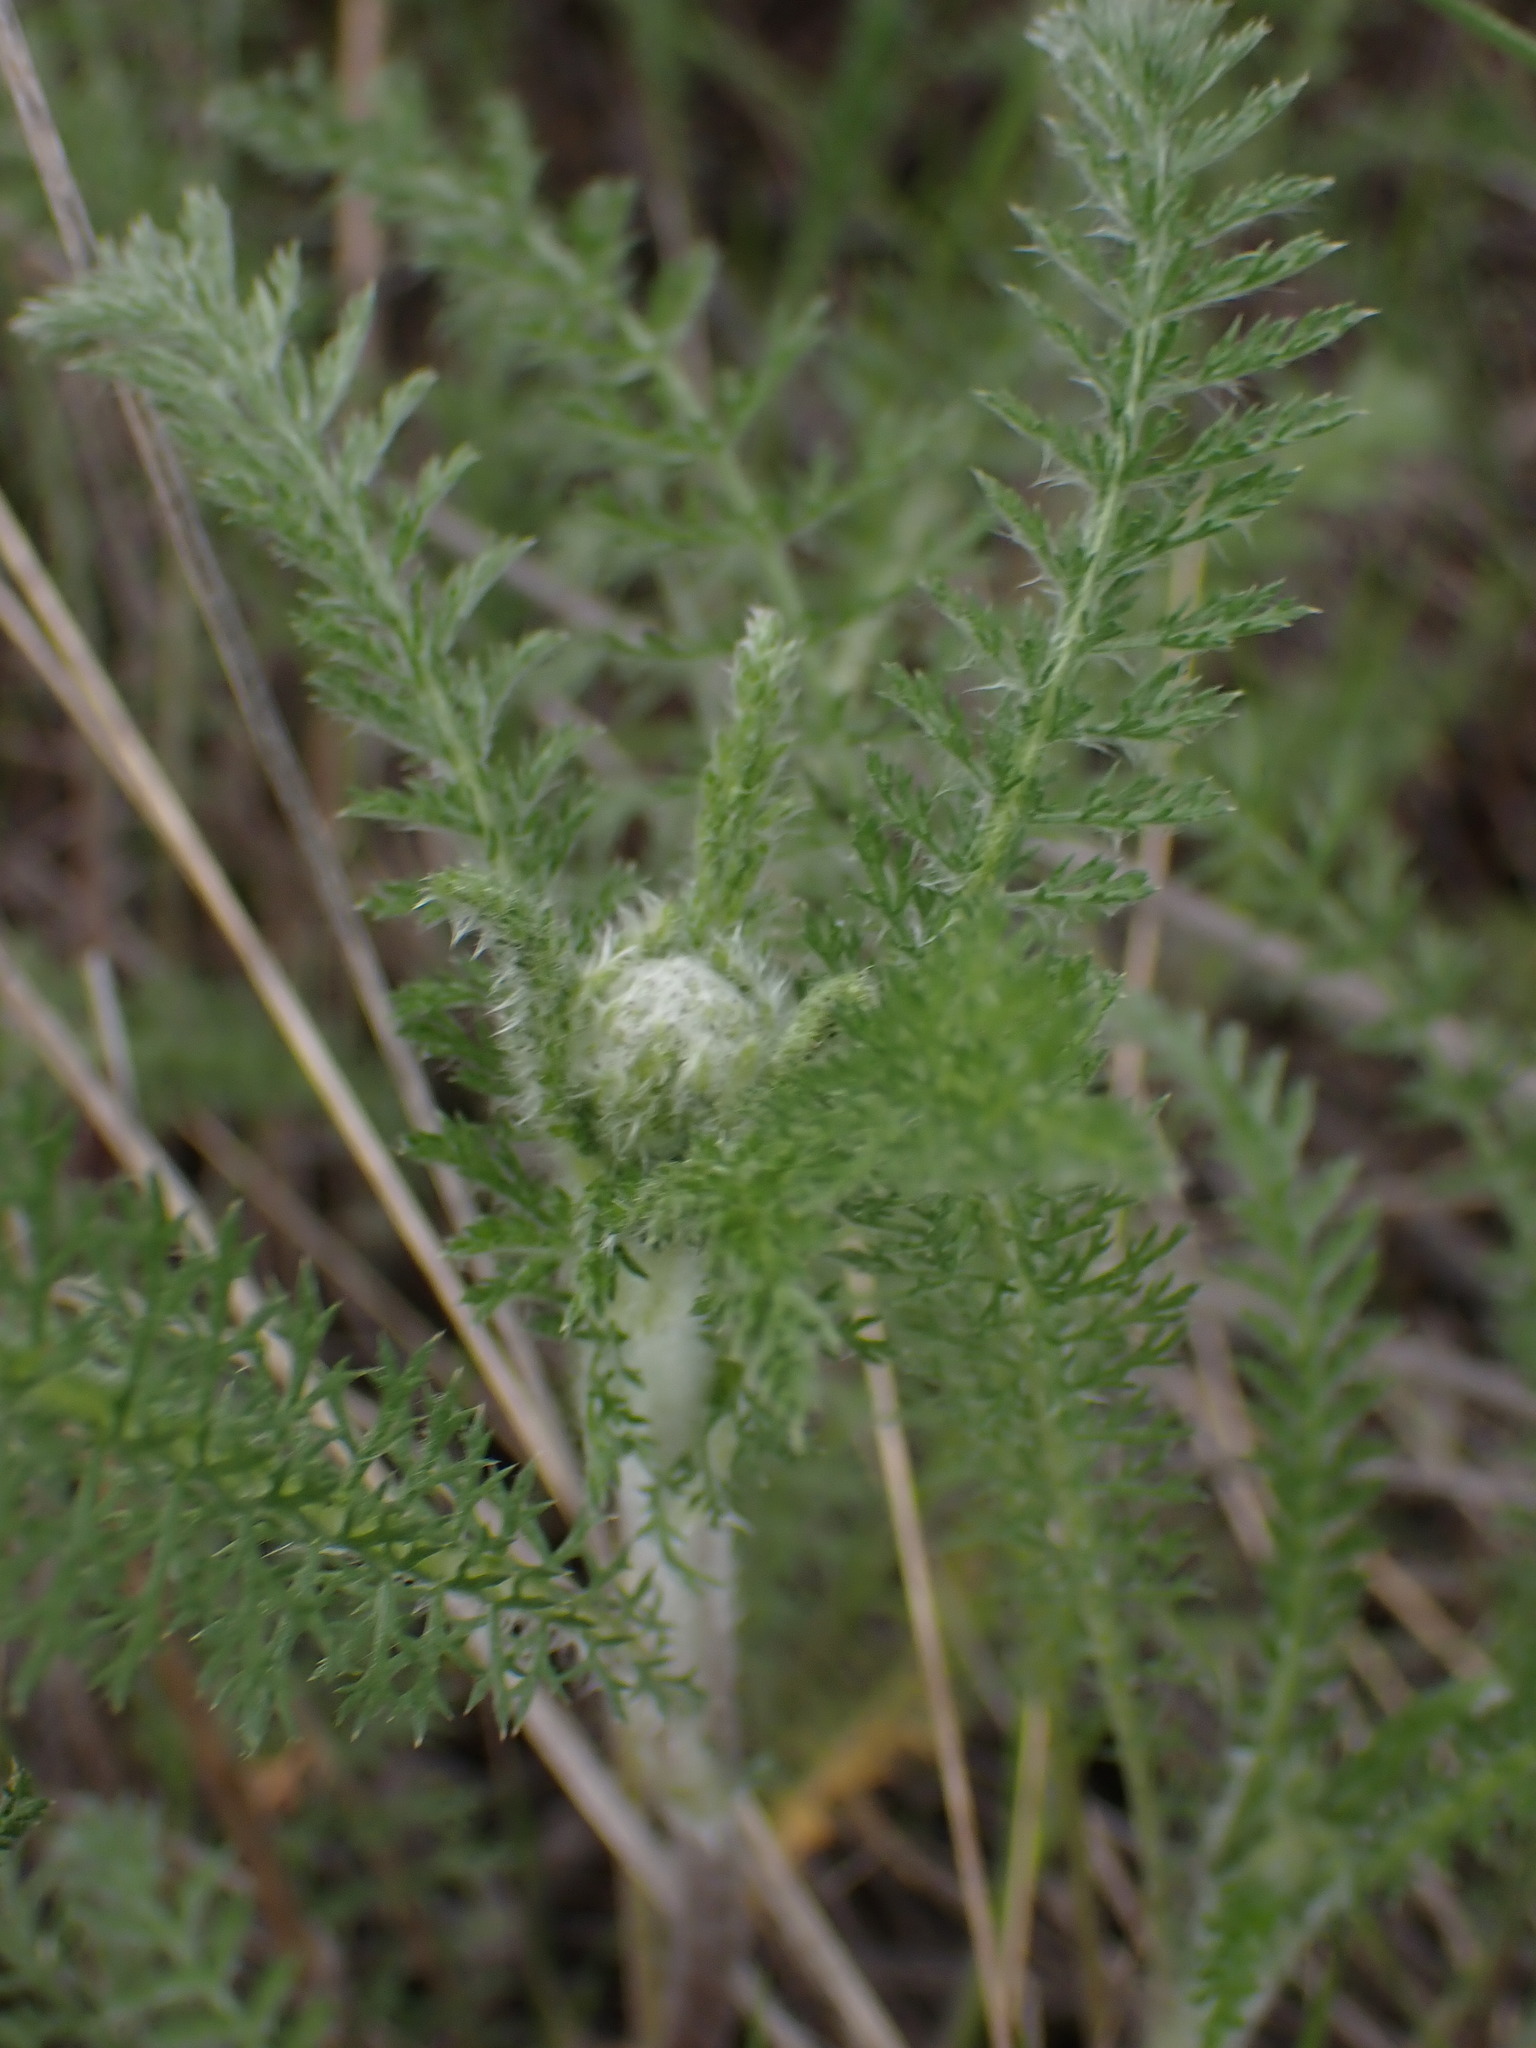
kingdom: Plantae
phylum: Tracheophyta
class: Magnoliopsida
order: Asterales
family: Asteraceae
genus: Achillea
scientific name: Achillea millefolium
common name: Yarrow
